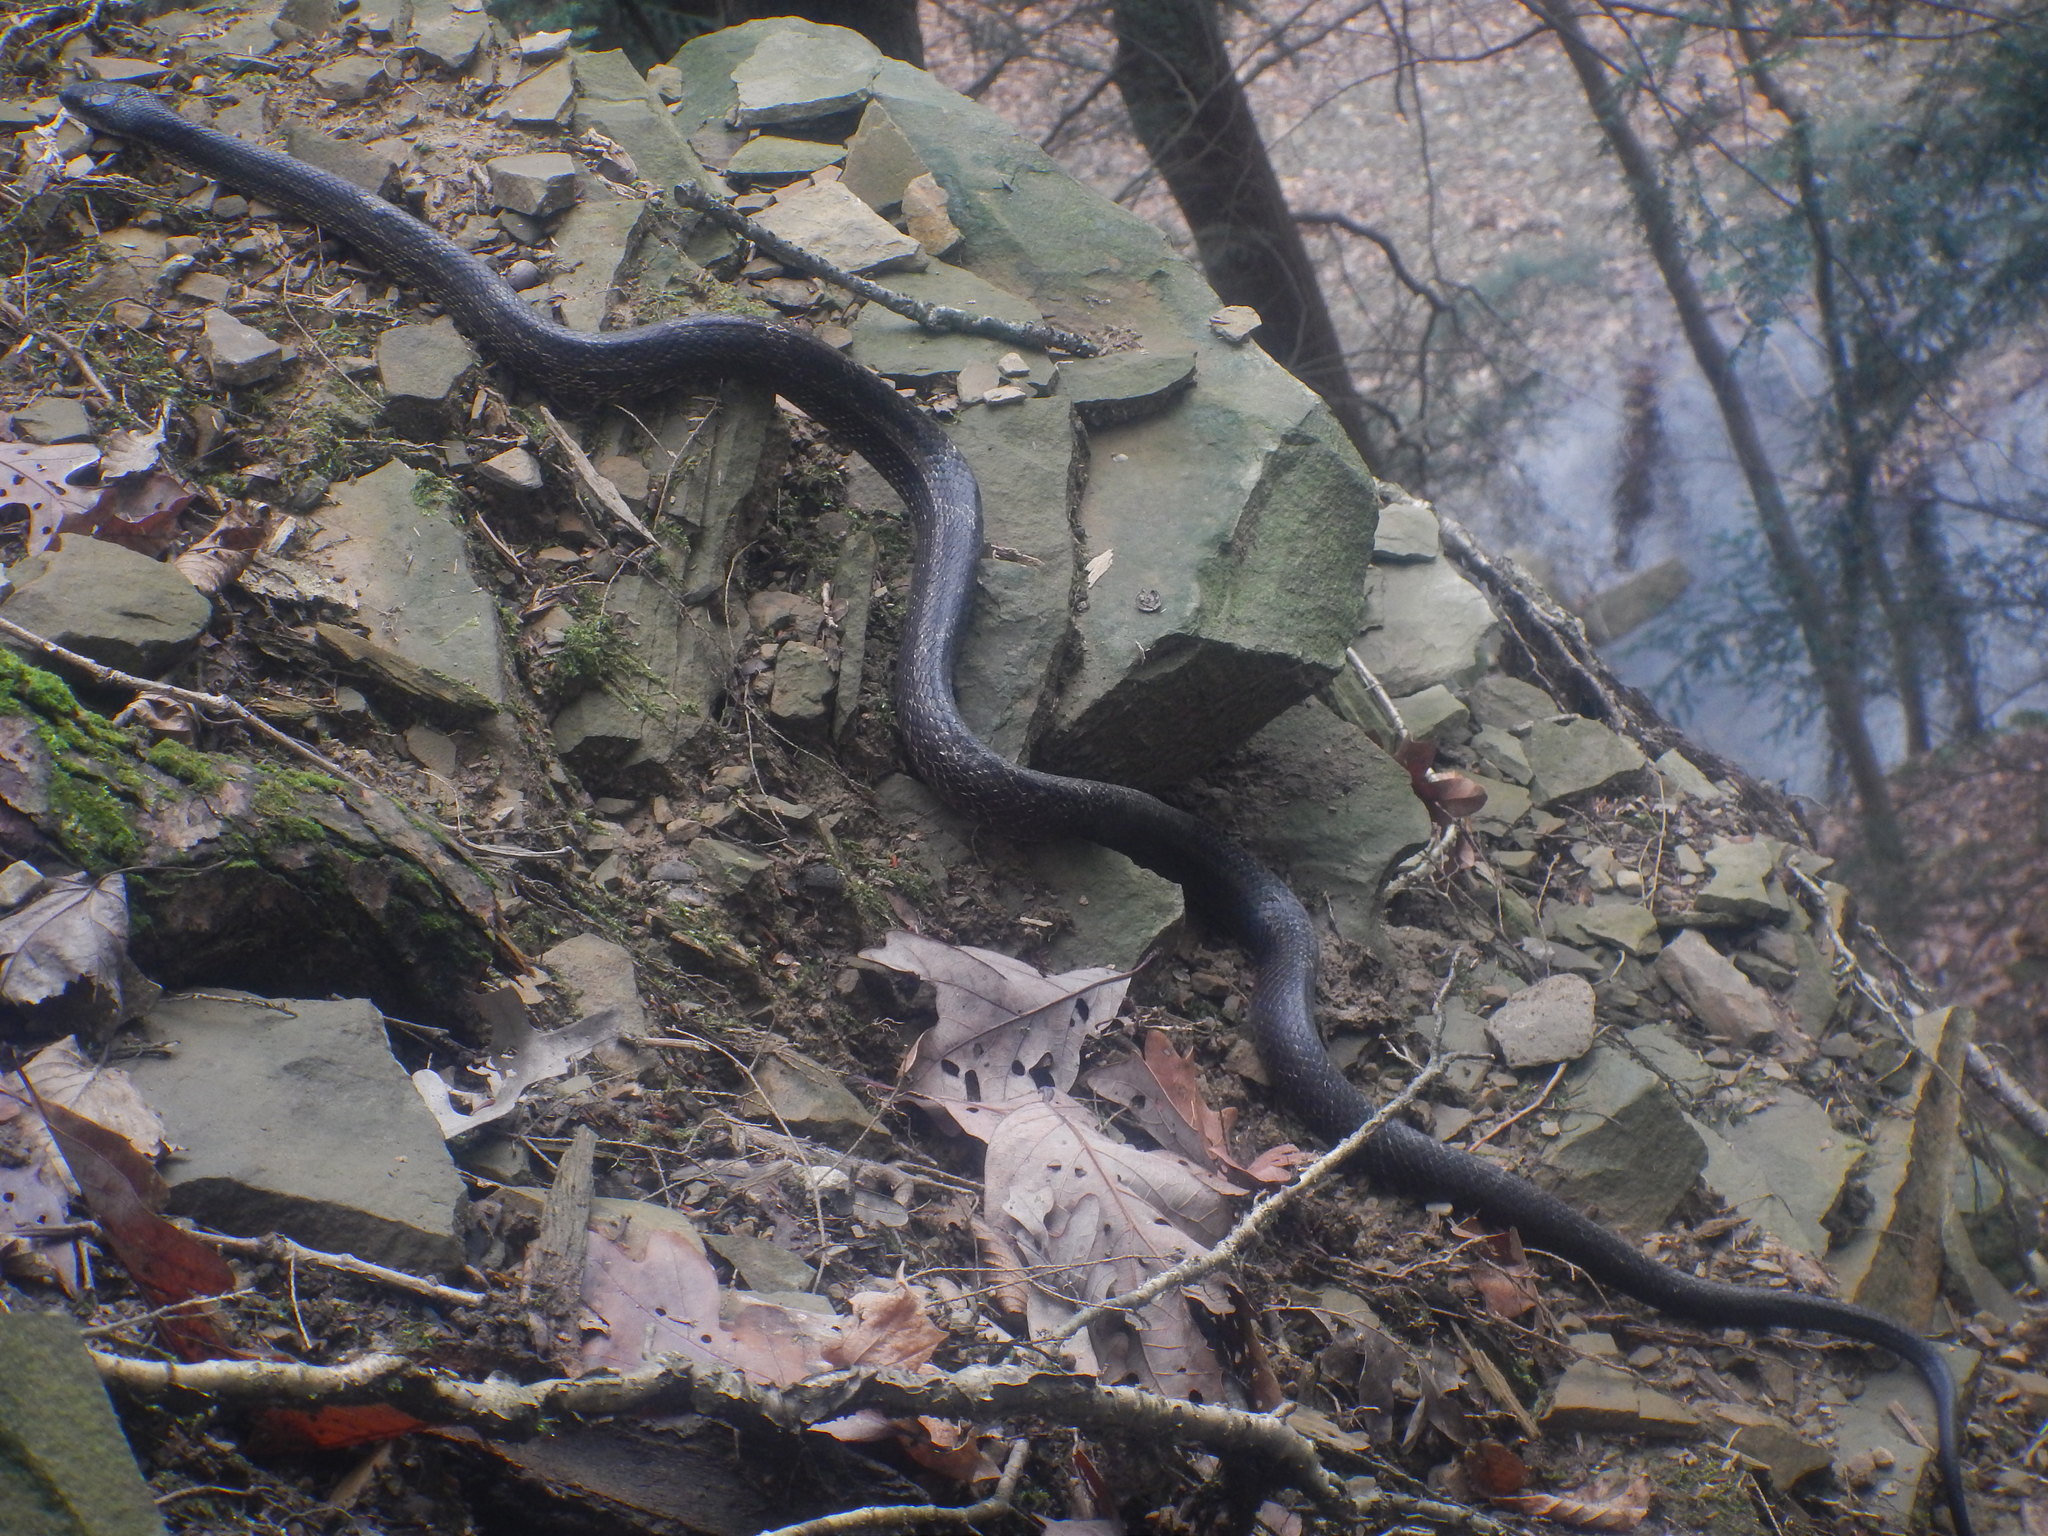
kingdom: Animalia
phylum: Chordata
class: Squamata
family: Colubridae
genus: Pantherophis
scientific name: Pantherophis
